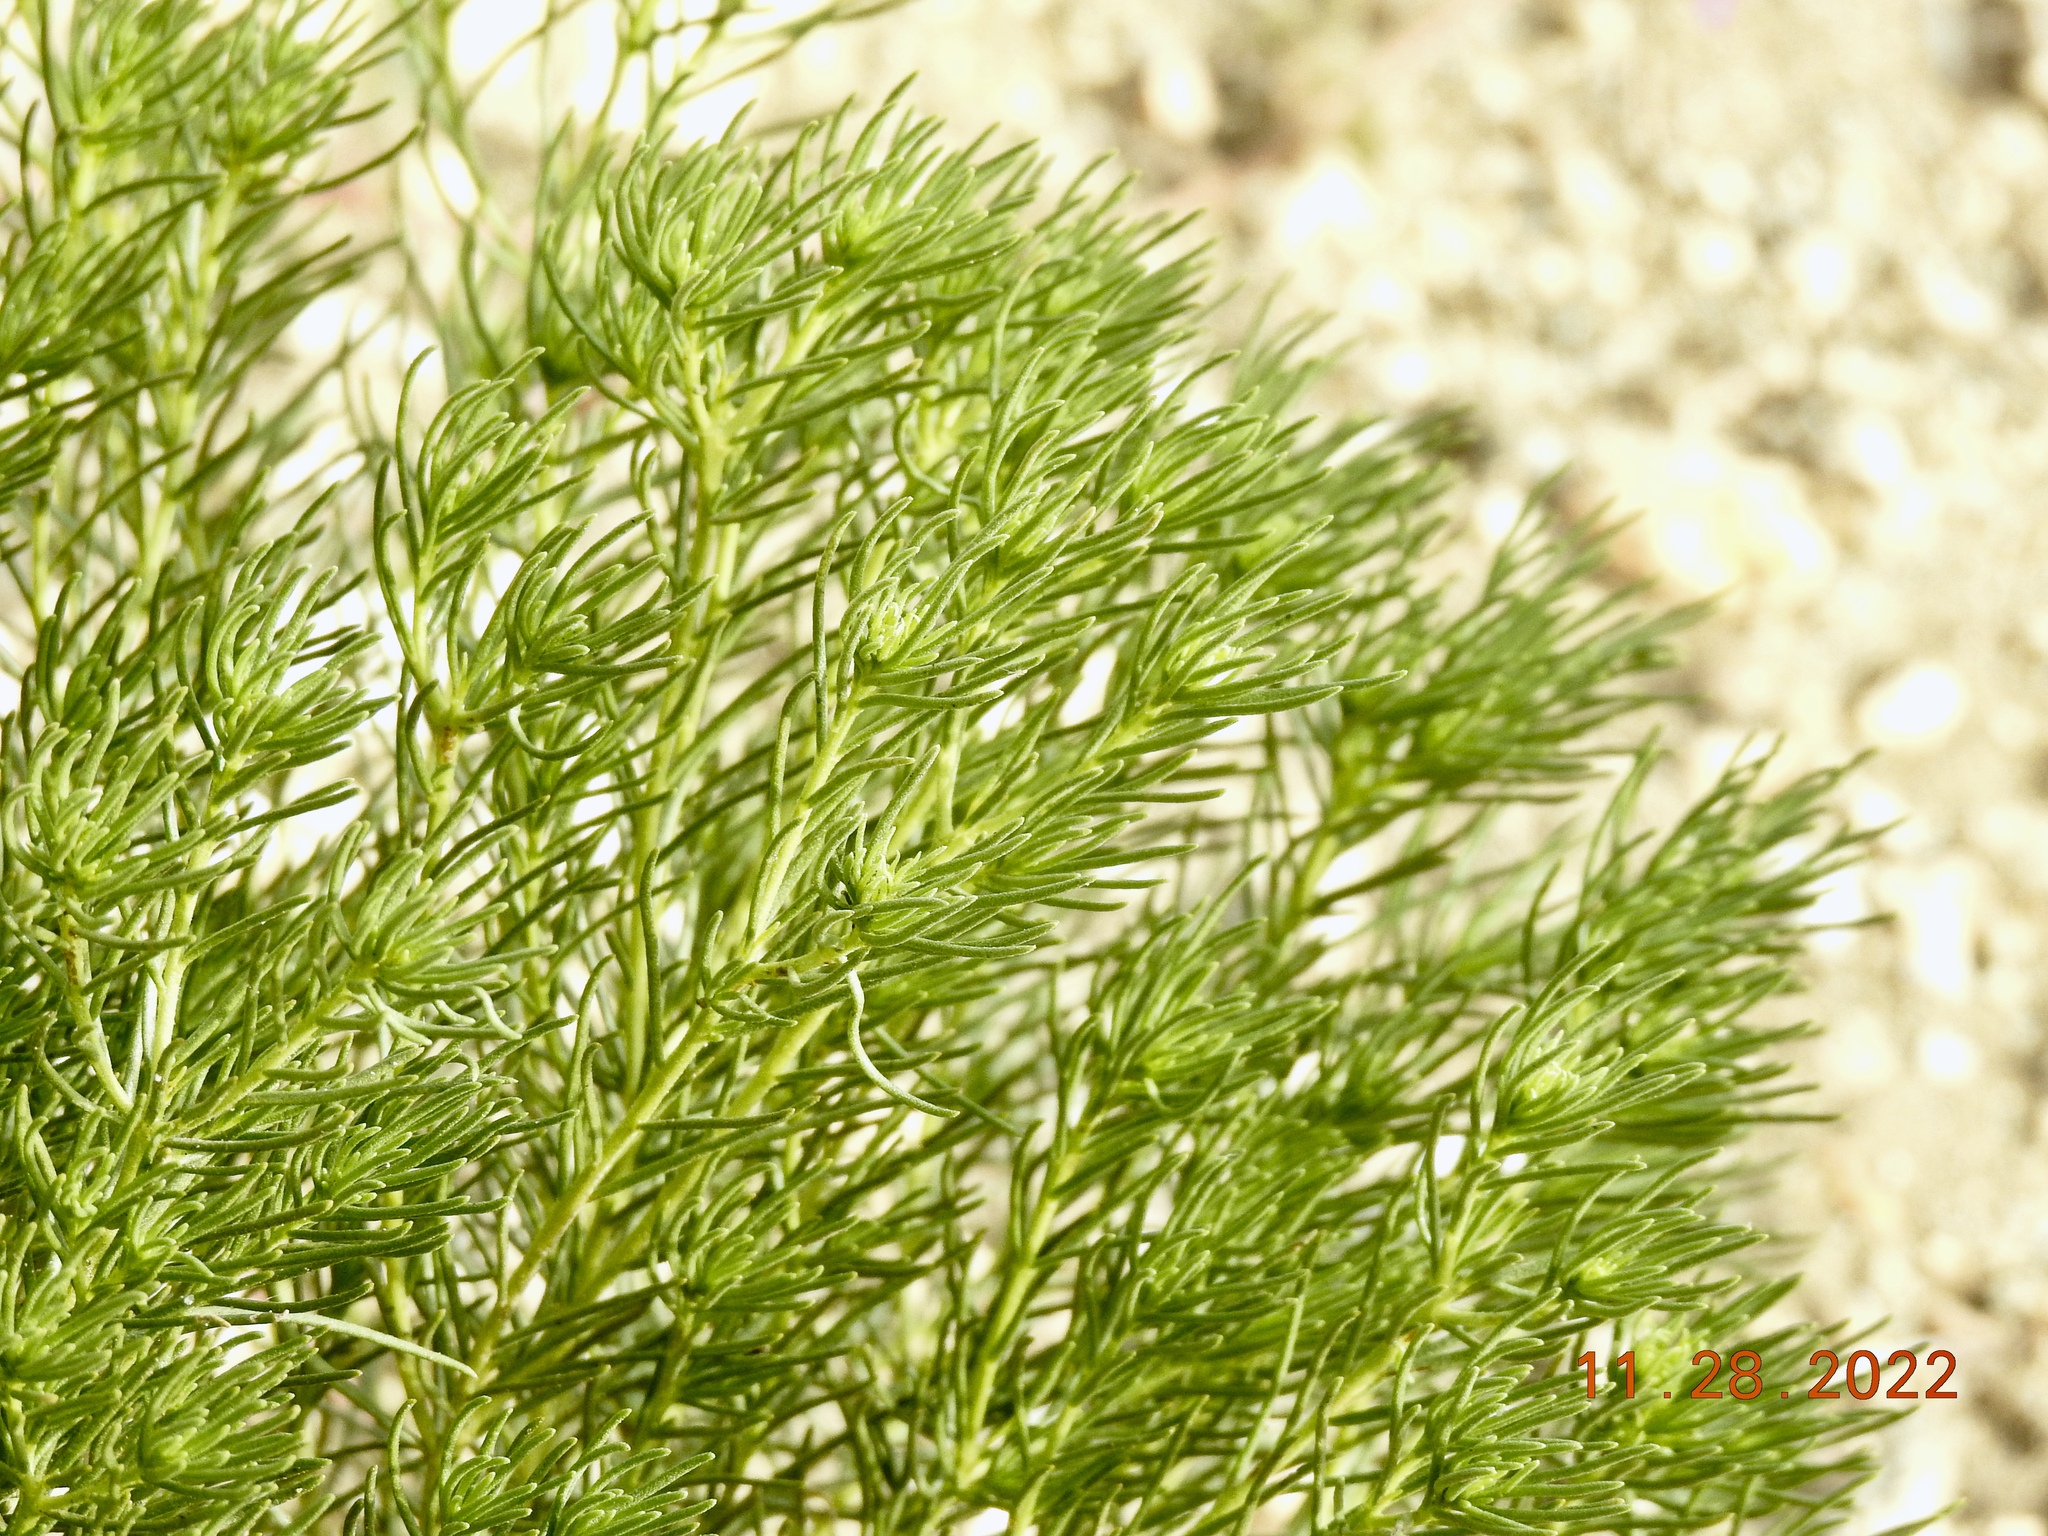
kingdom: Plantae
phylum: Tracheophyta
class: Magnoliopsida
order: Asterales
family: Asteraceae
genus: Peucephyllum
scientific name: Peucephyllum schottii
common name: Pygmy-cedar
